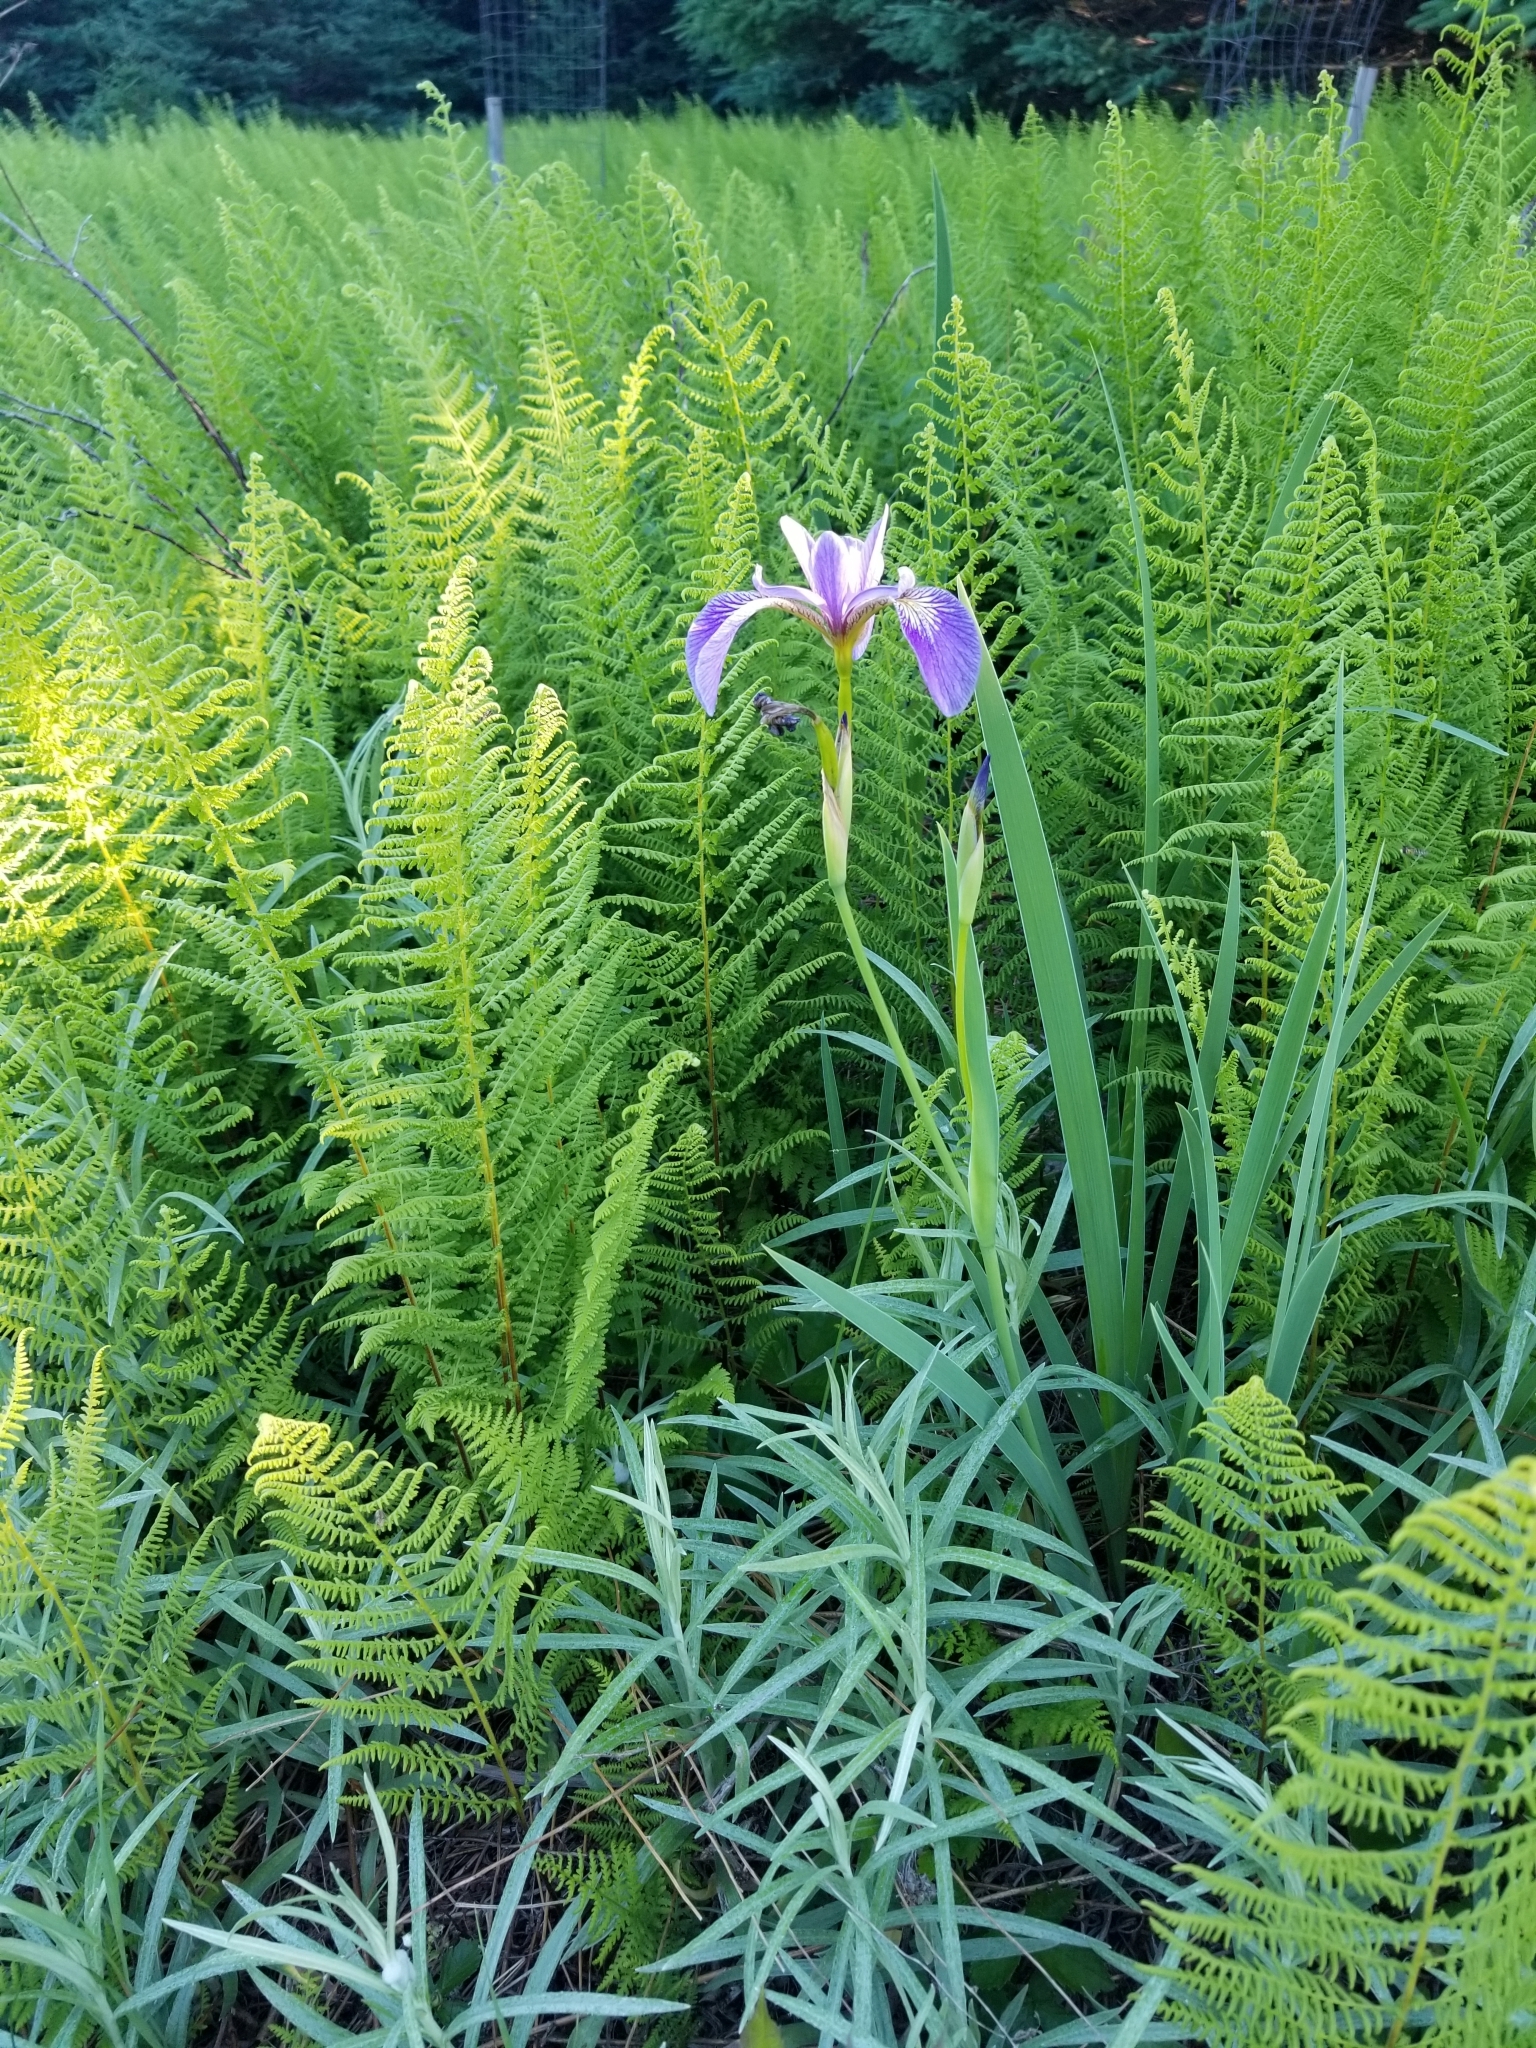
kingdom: Plantae
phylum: Tracheophyta
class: Liliopsida
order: Asparagales
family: Iridaceae
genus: Iris
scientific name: Iris versicolor
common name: Purple iris
